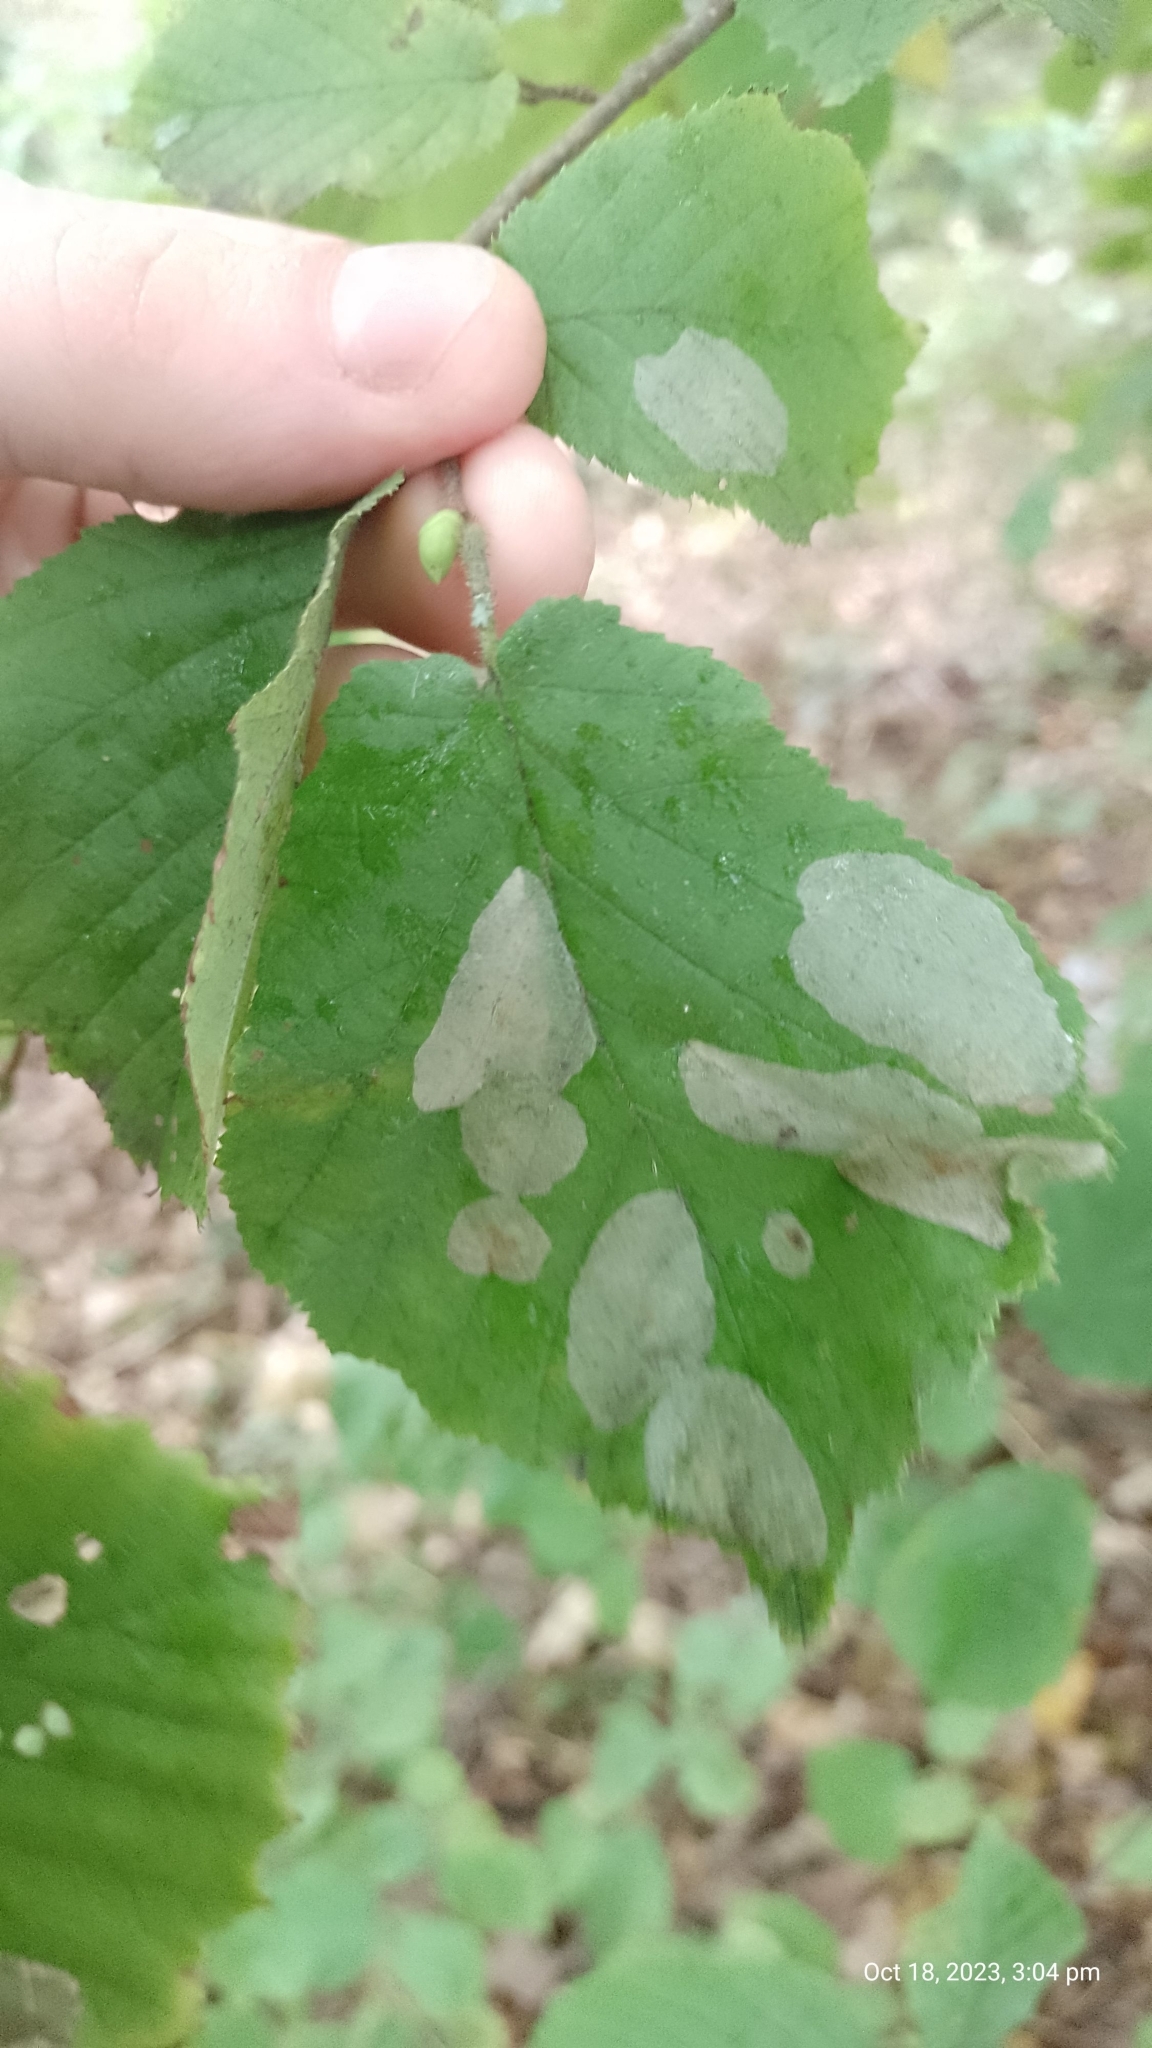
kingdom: Animalia
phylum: Arthropoda
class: Insecta
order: Lepidoptera
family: Gracillariidae
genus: Phyllonorycter
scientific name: Phyllonorycter coryli
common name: Nut-leaf blister moth
